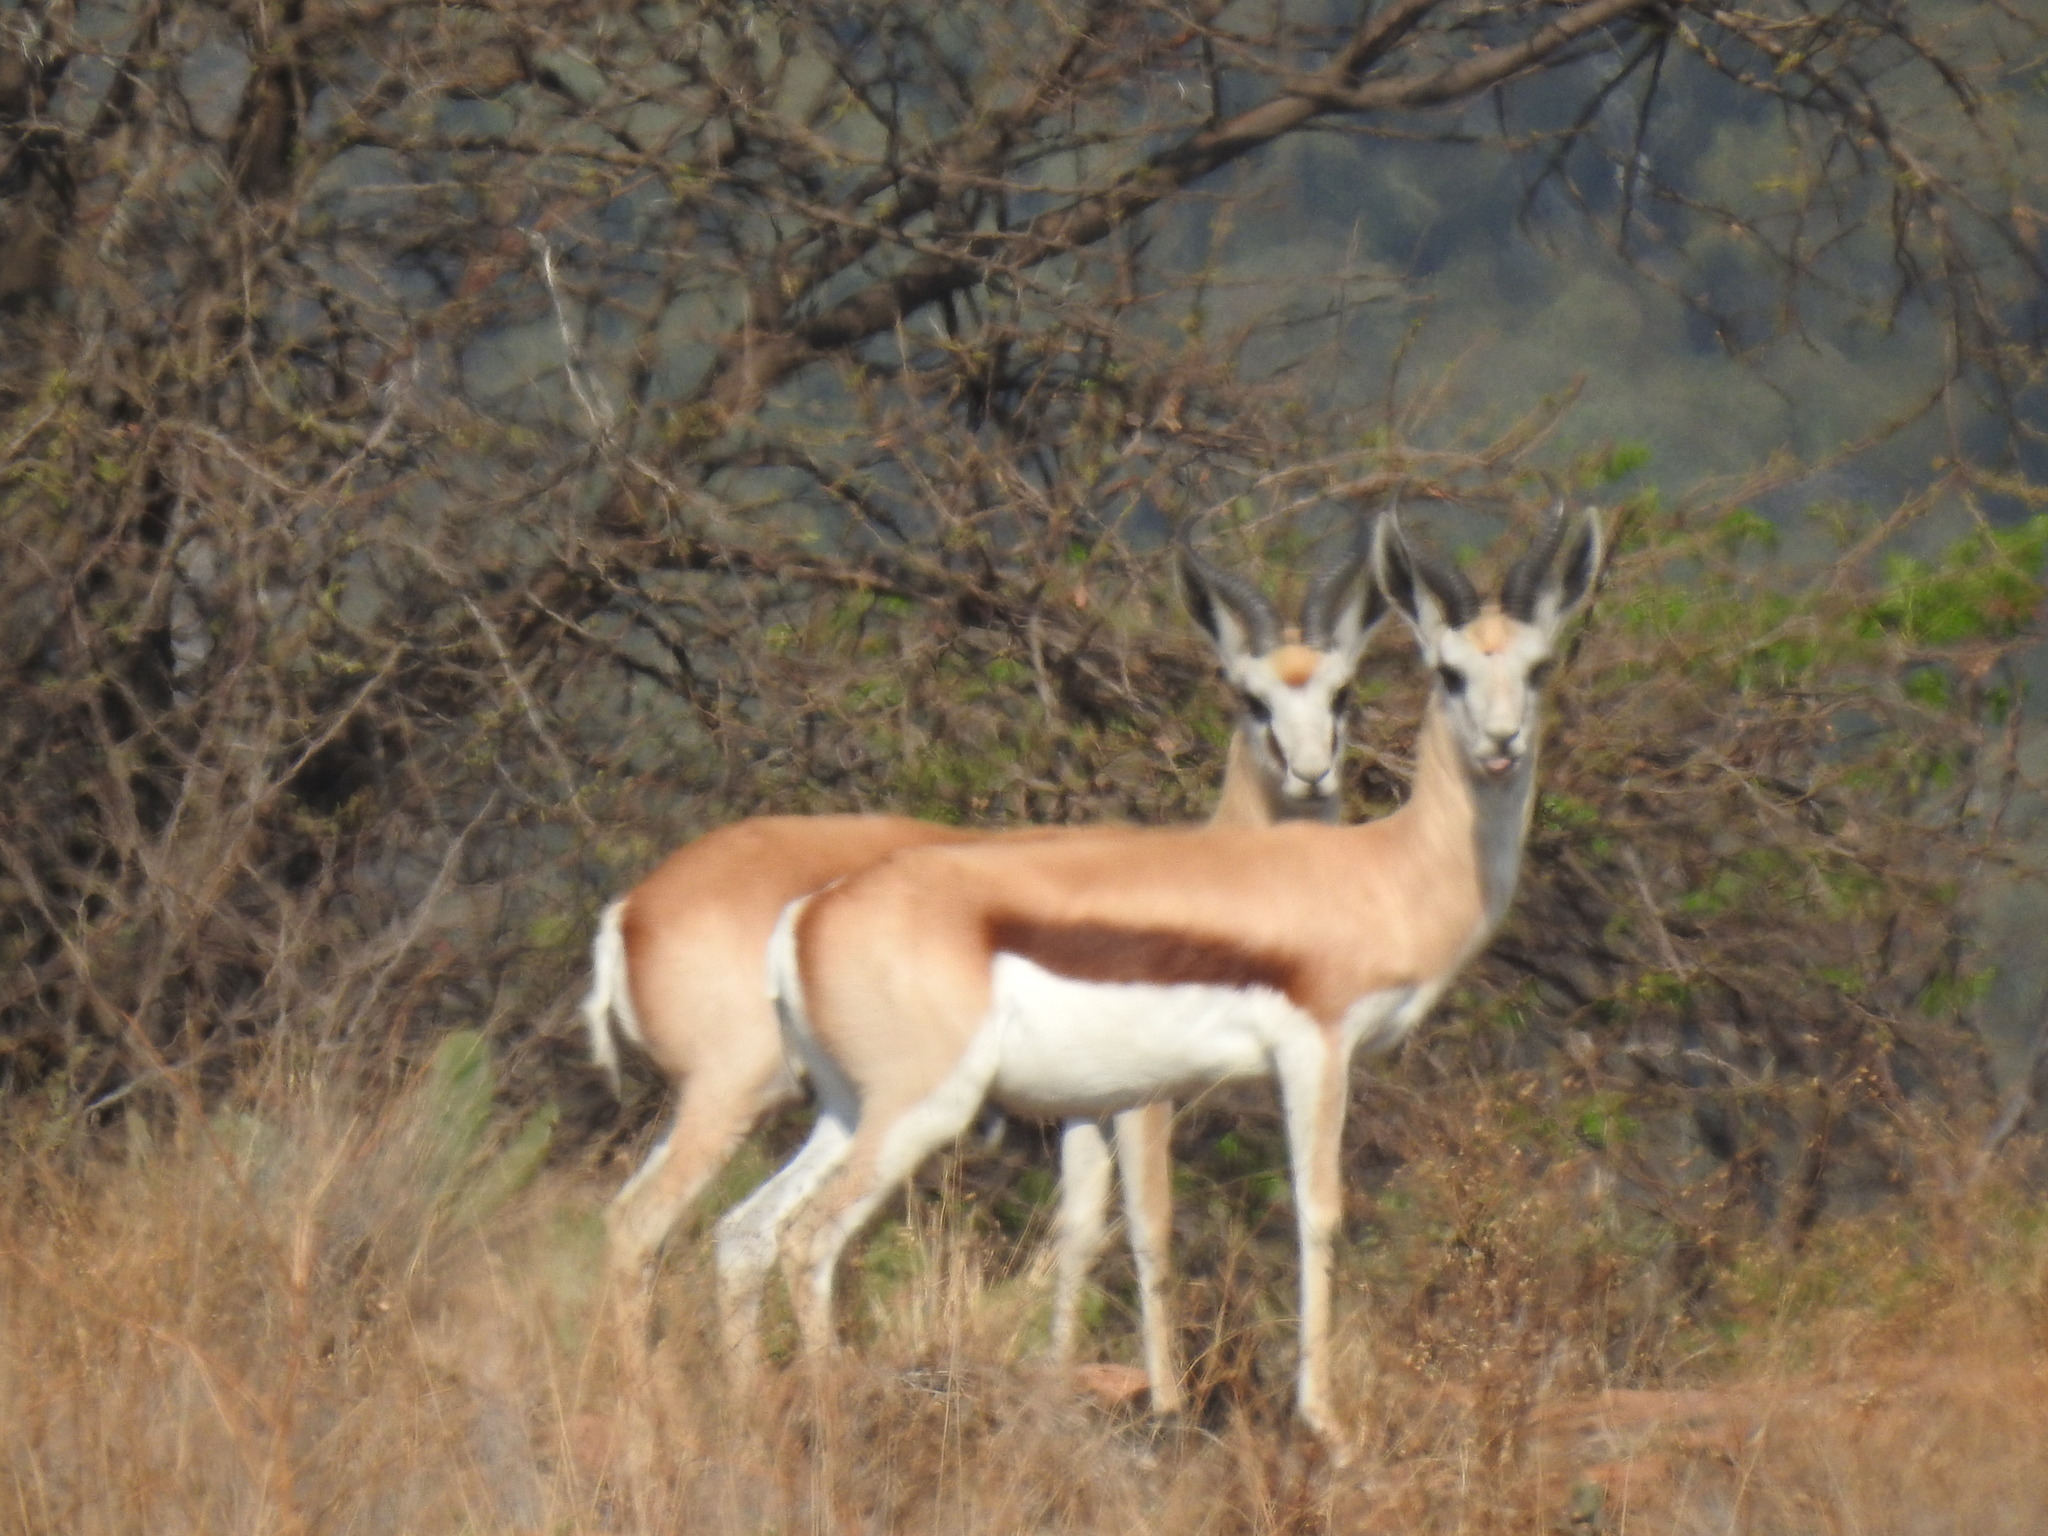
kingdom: Animalia
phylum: Chordata
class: Mammalia
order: Artiodactyla
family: Bovidae
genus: Antidorcas
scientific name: Antidorcas marsupialis
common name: Springbok
